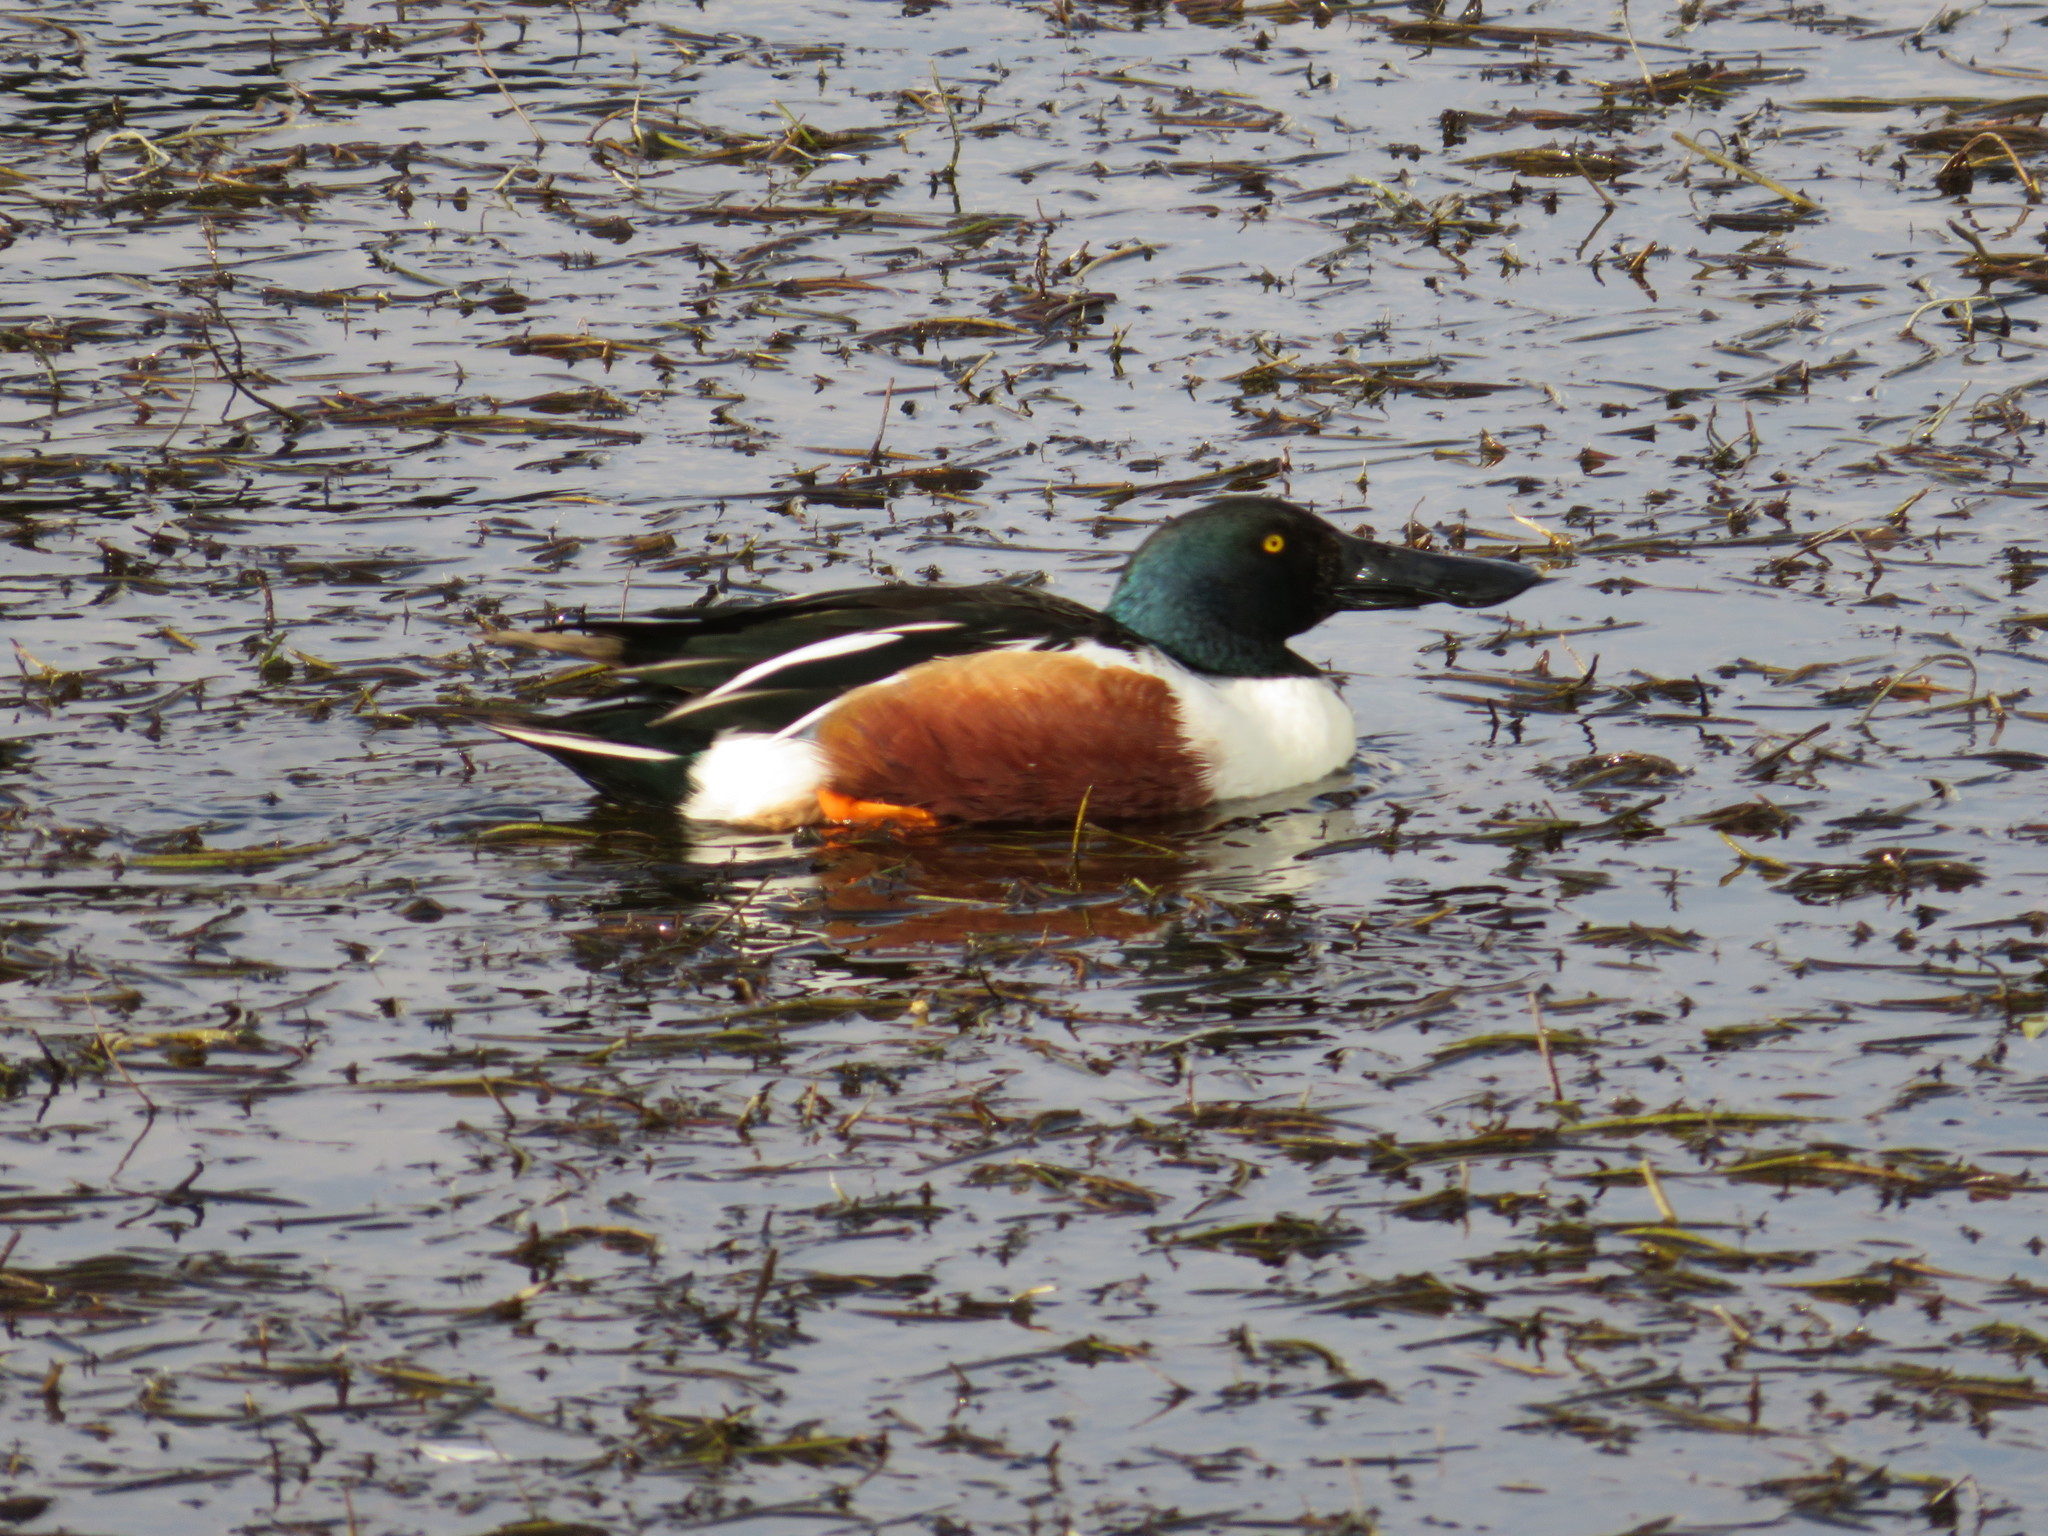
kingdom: Animalia
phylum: Chordata
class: Aves
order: Anseriformes
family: Anatidae
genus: Spatula
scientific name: Spatula clypeata
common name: Northern shoveler
